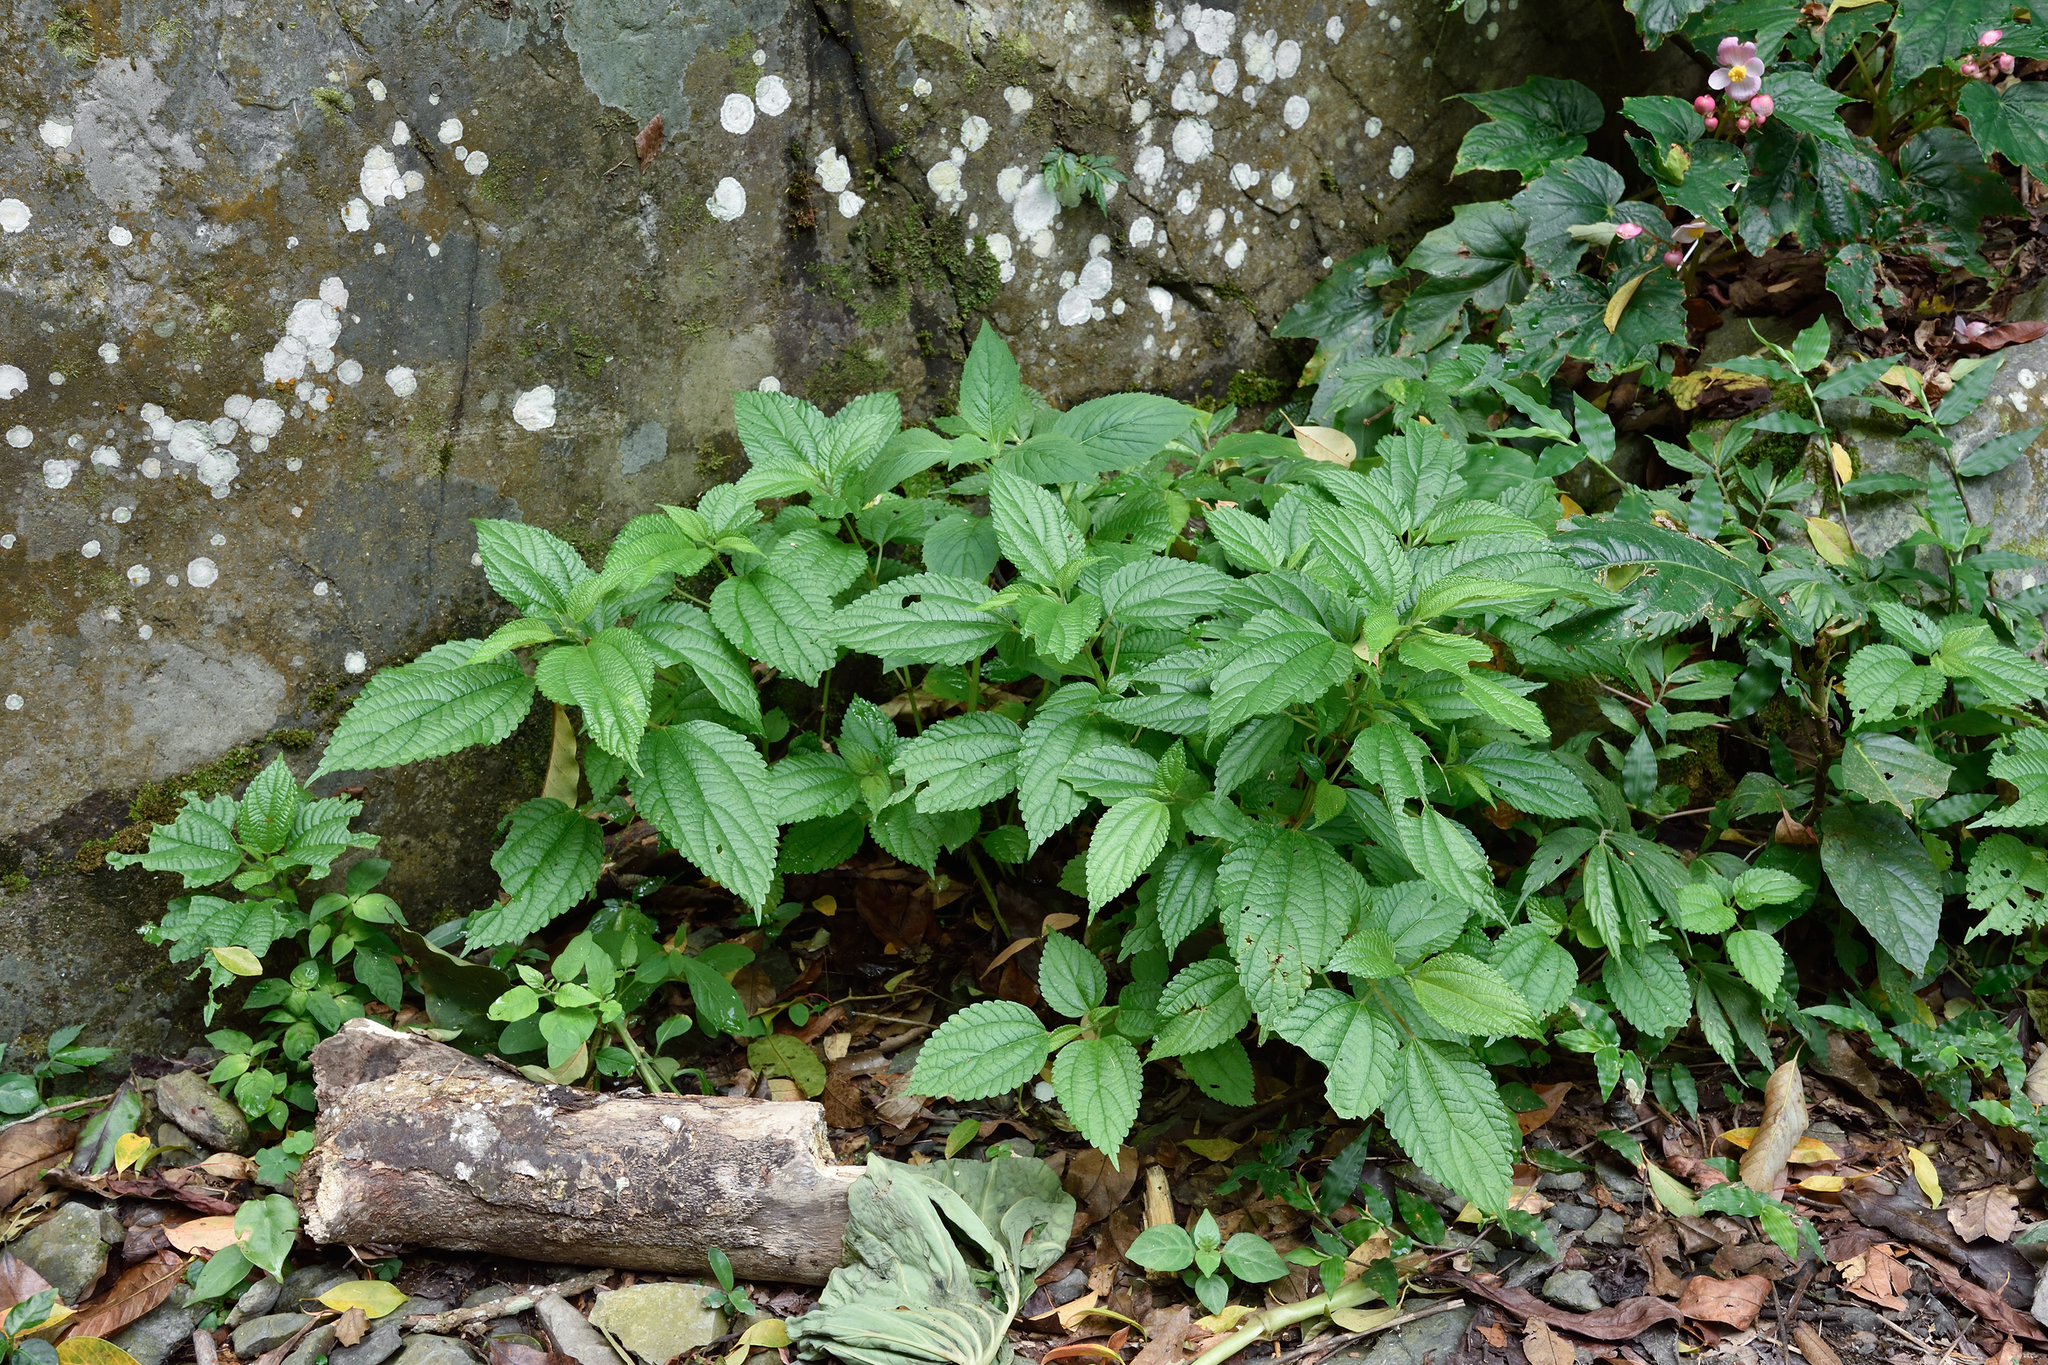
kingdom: Plantae
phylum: Tracheophyta
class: Magnoliopsida
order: Rosales
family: Urticaceae
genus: Boehmeria
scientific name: Boehmeria sieboldiana
